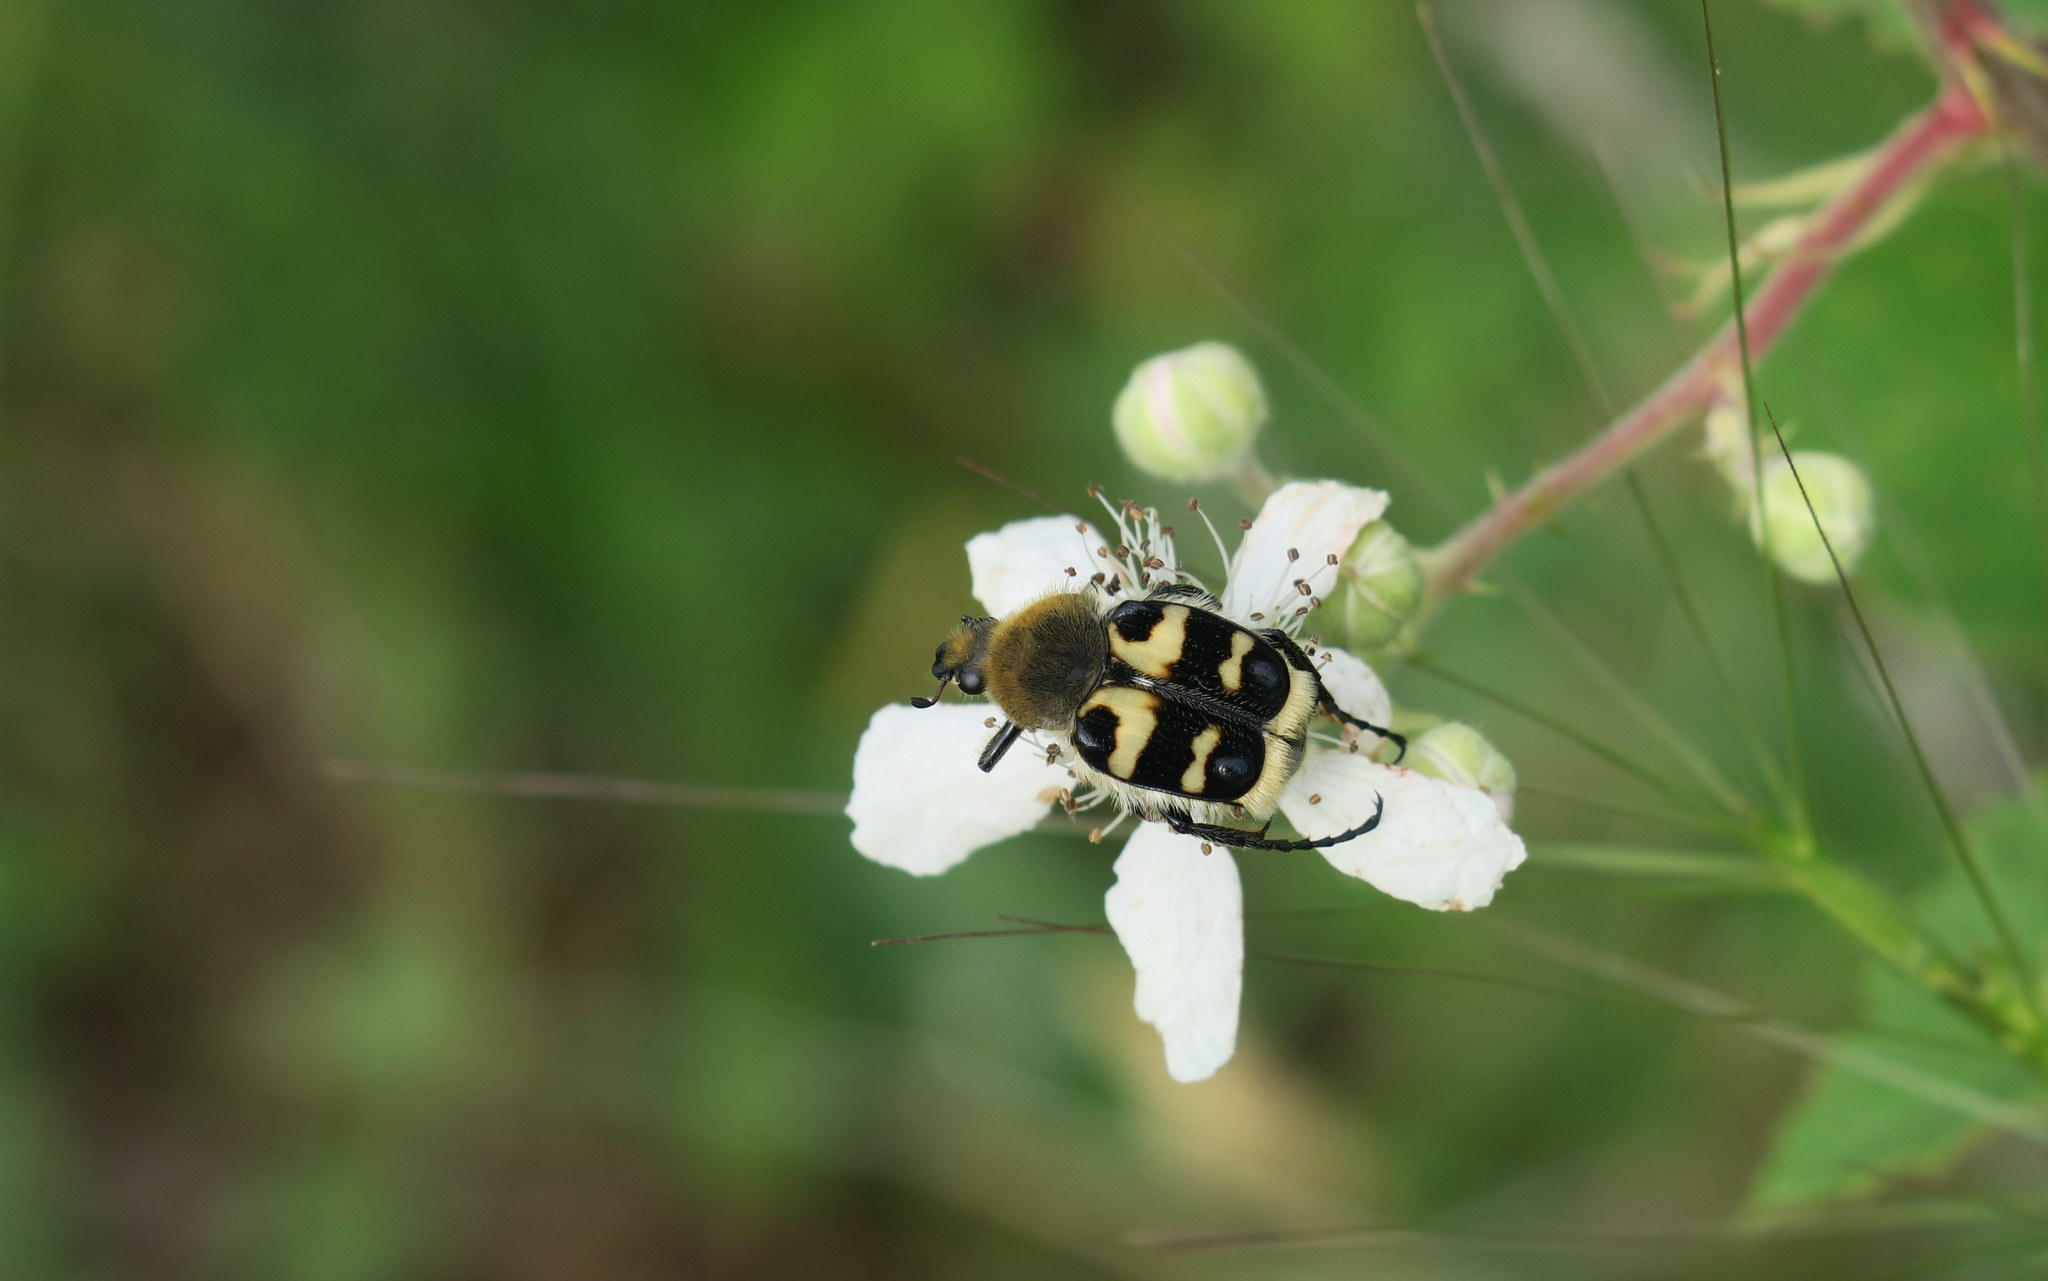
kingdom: Animalia
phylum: Arthropoda
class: Insecta
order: Coleoptera
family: Scarabaeidae
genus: Trichius
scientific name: Trichius sexualis
